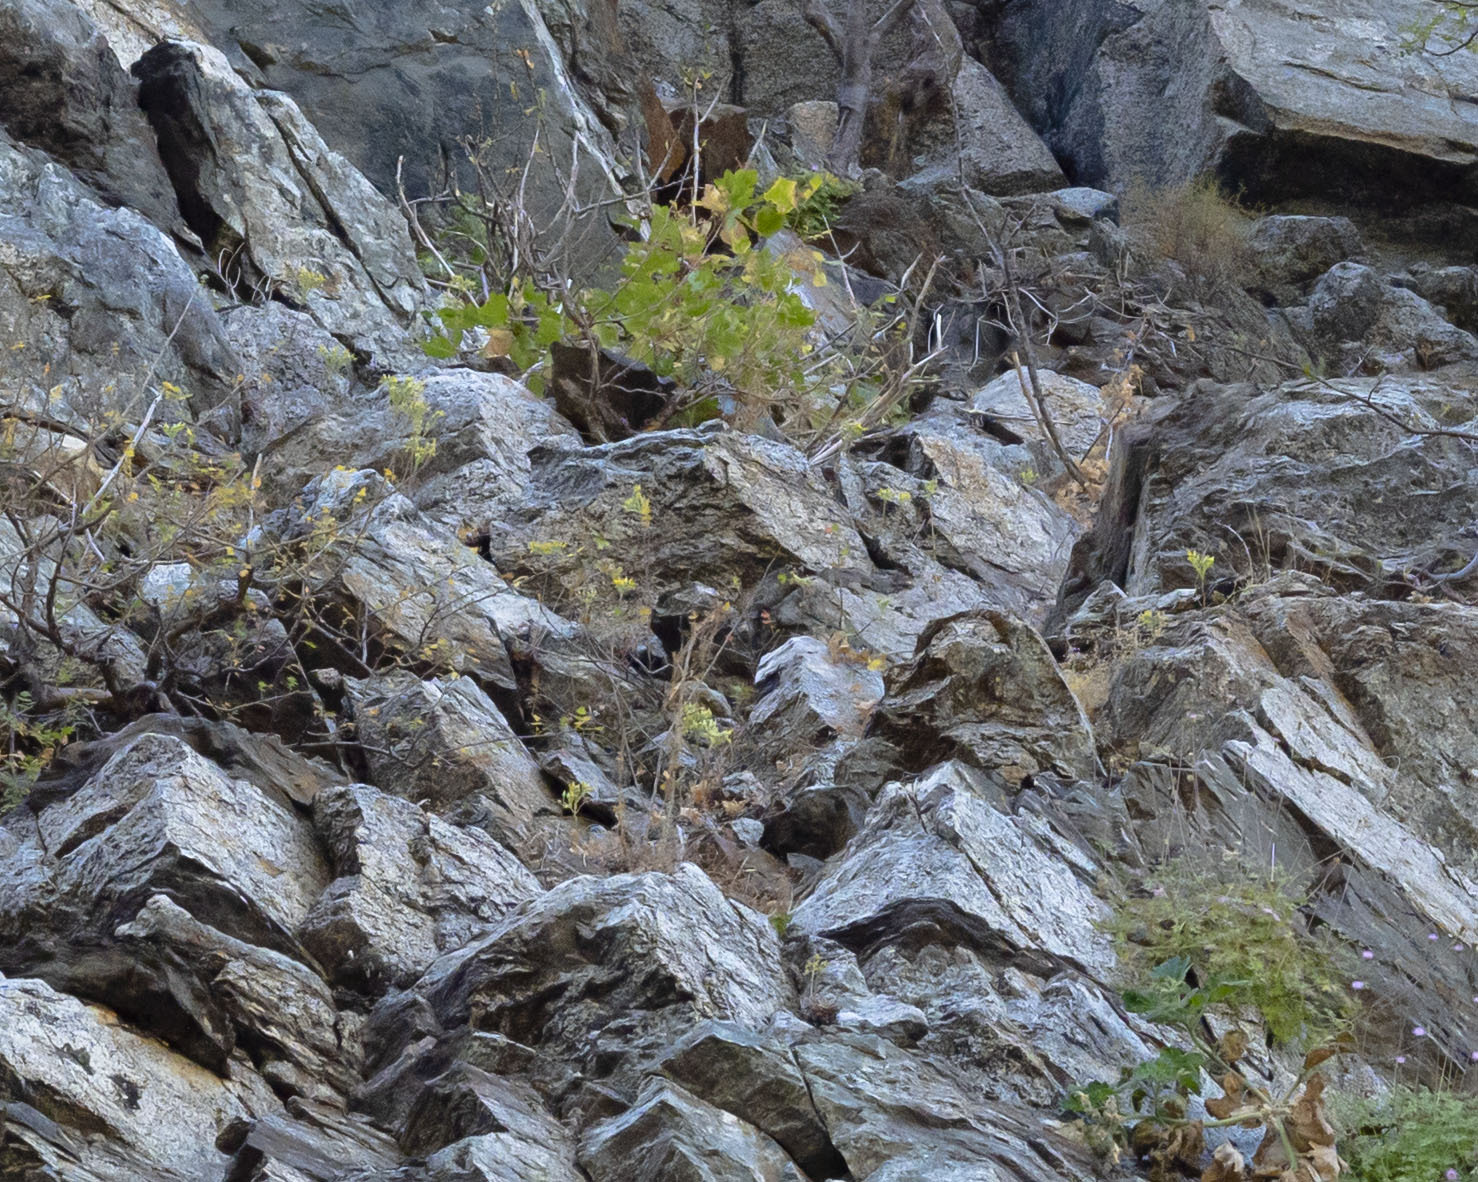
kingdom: Plantae
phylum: Tracheophyta
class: Magnoliopsida
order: Saxifragales
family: Crassulaceae
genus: Dudleya
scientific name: Dudleya nubigena
